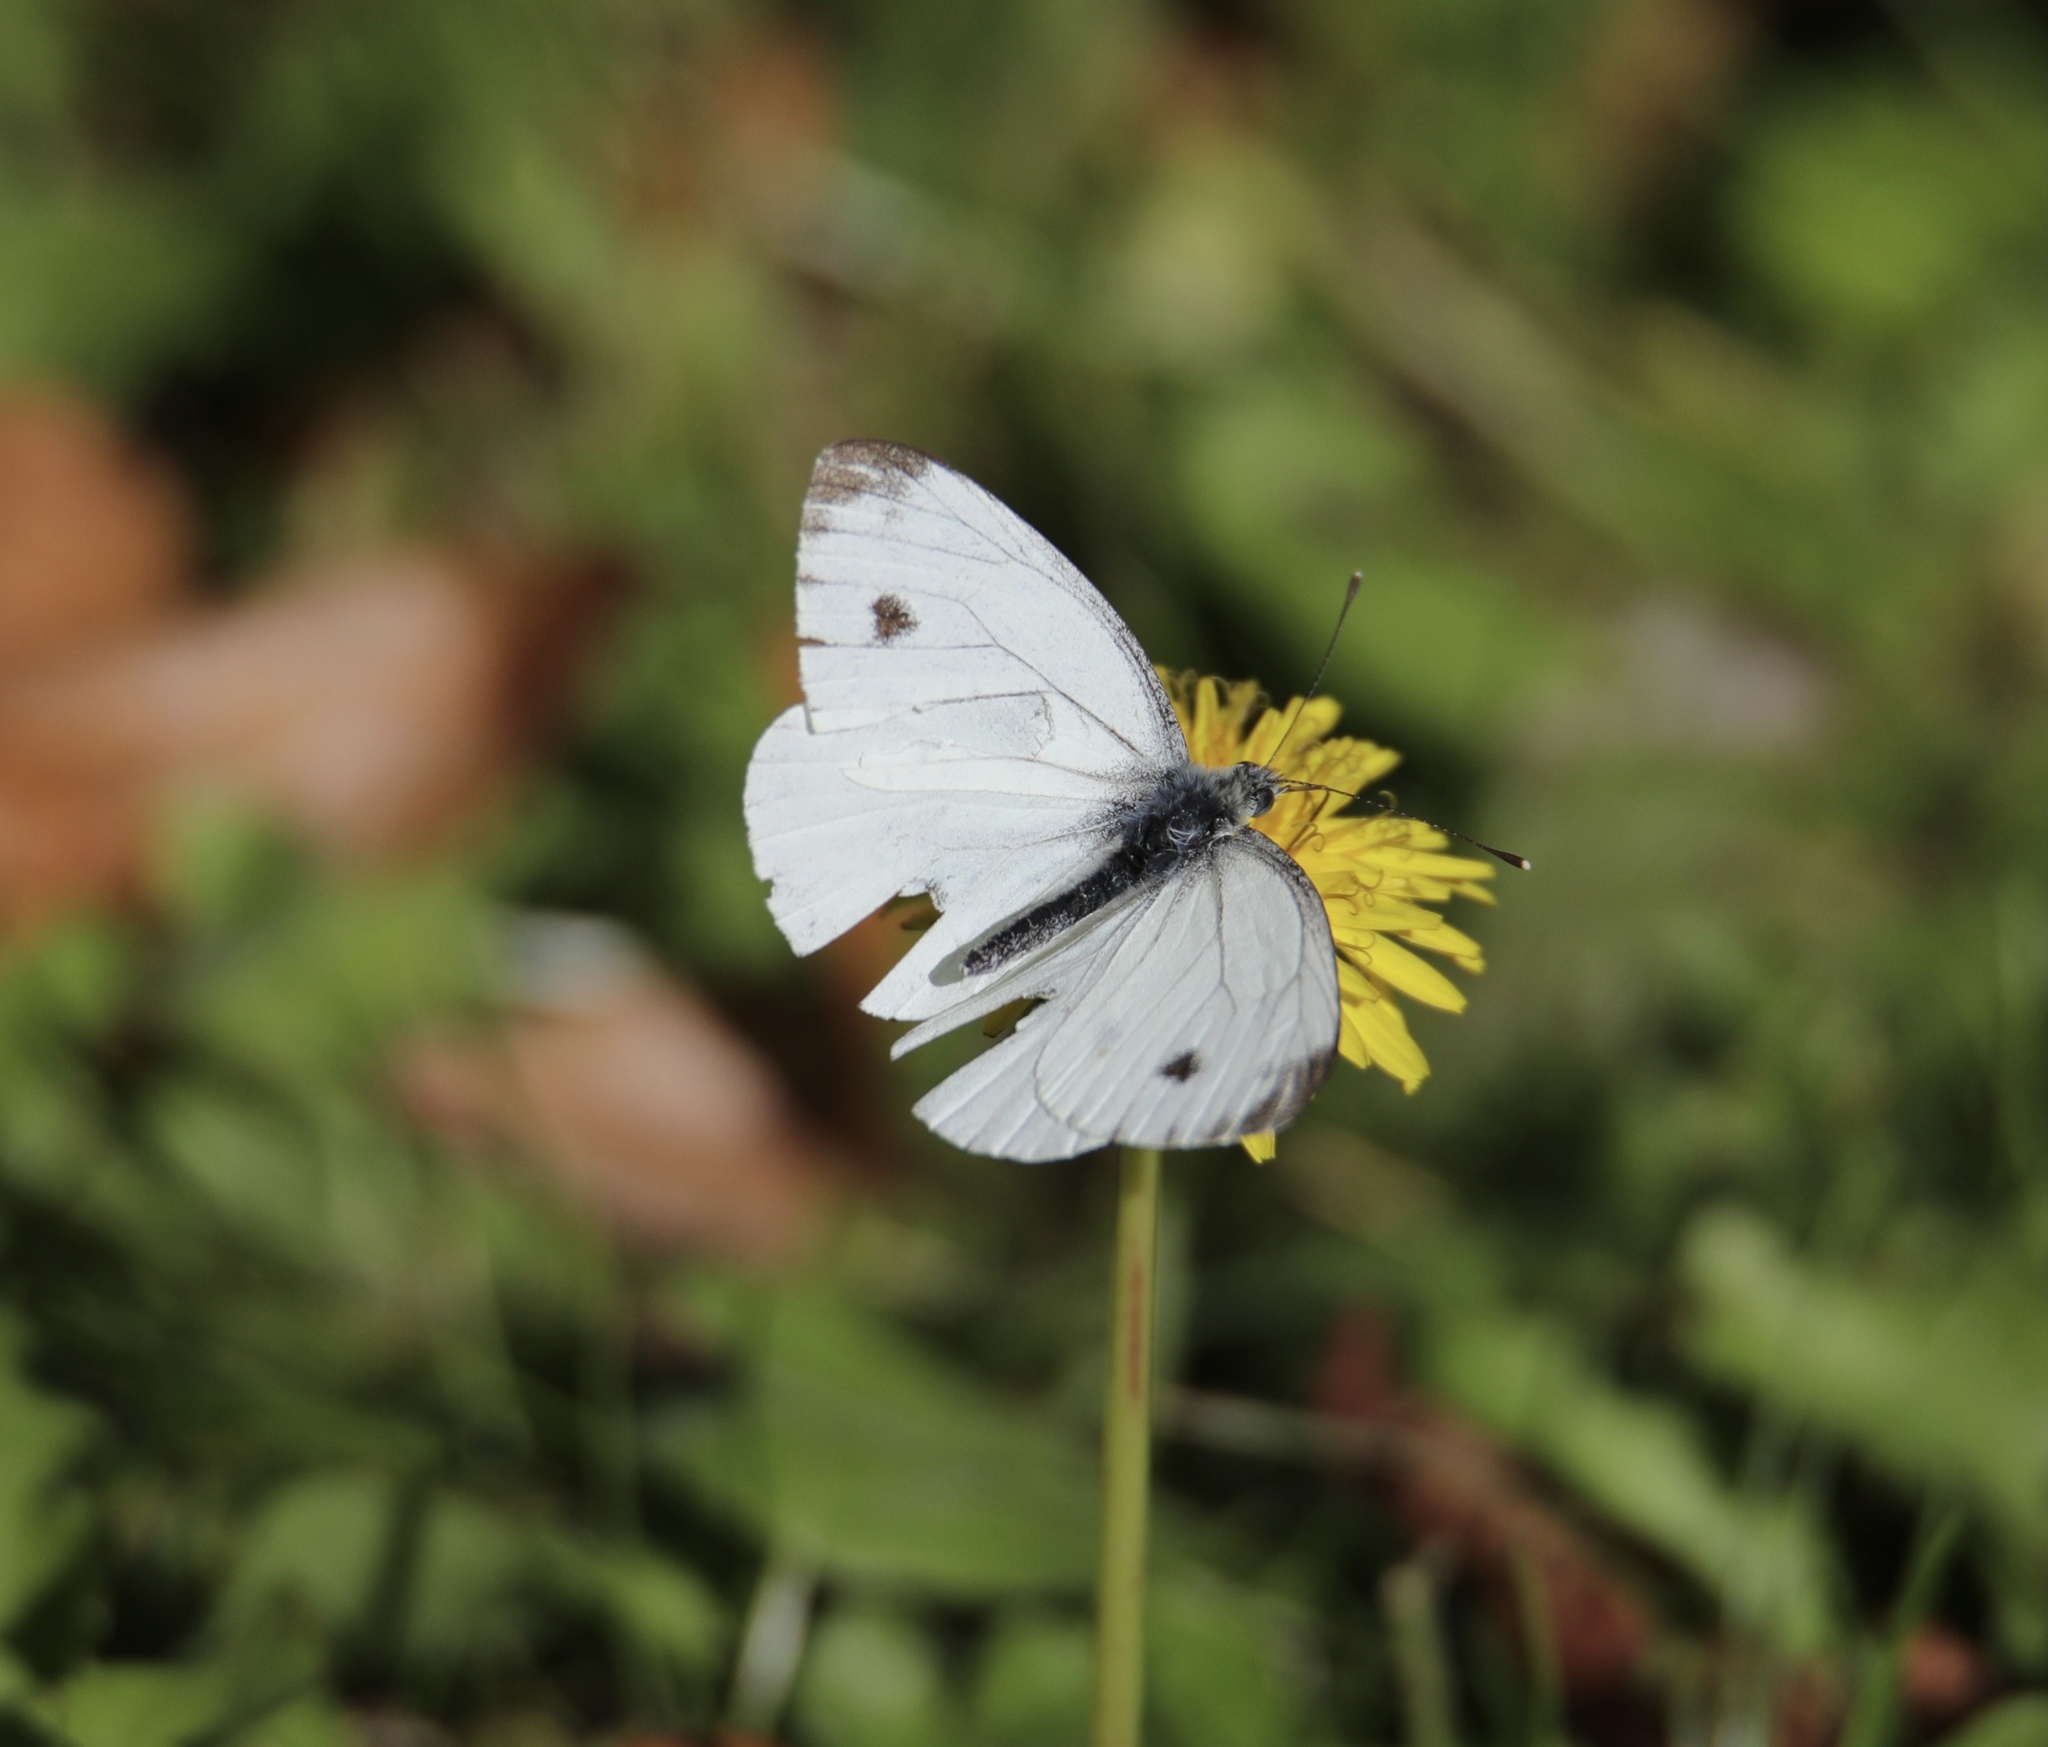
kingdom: Animalia
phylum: Arthropoda
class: Insecta
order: Lepidoptera
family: Pieridae
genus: Pieris
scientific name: Pieris napi
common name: Green-veined white
